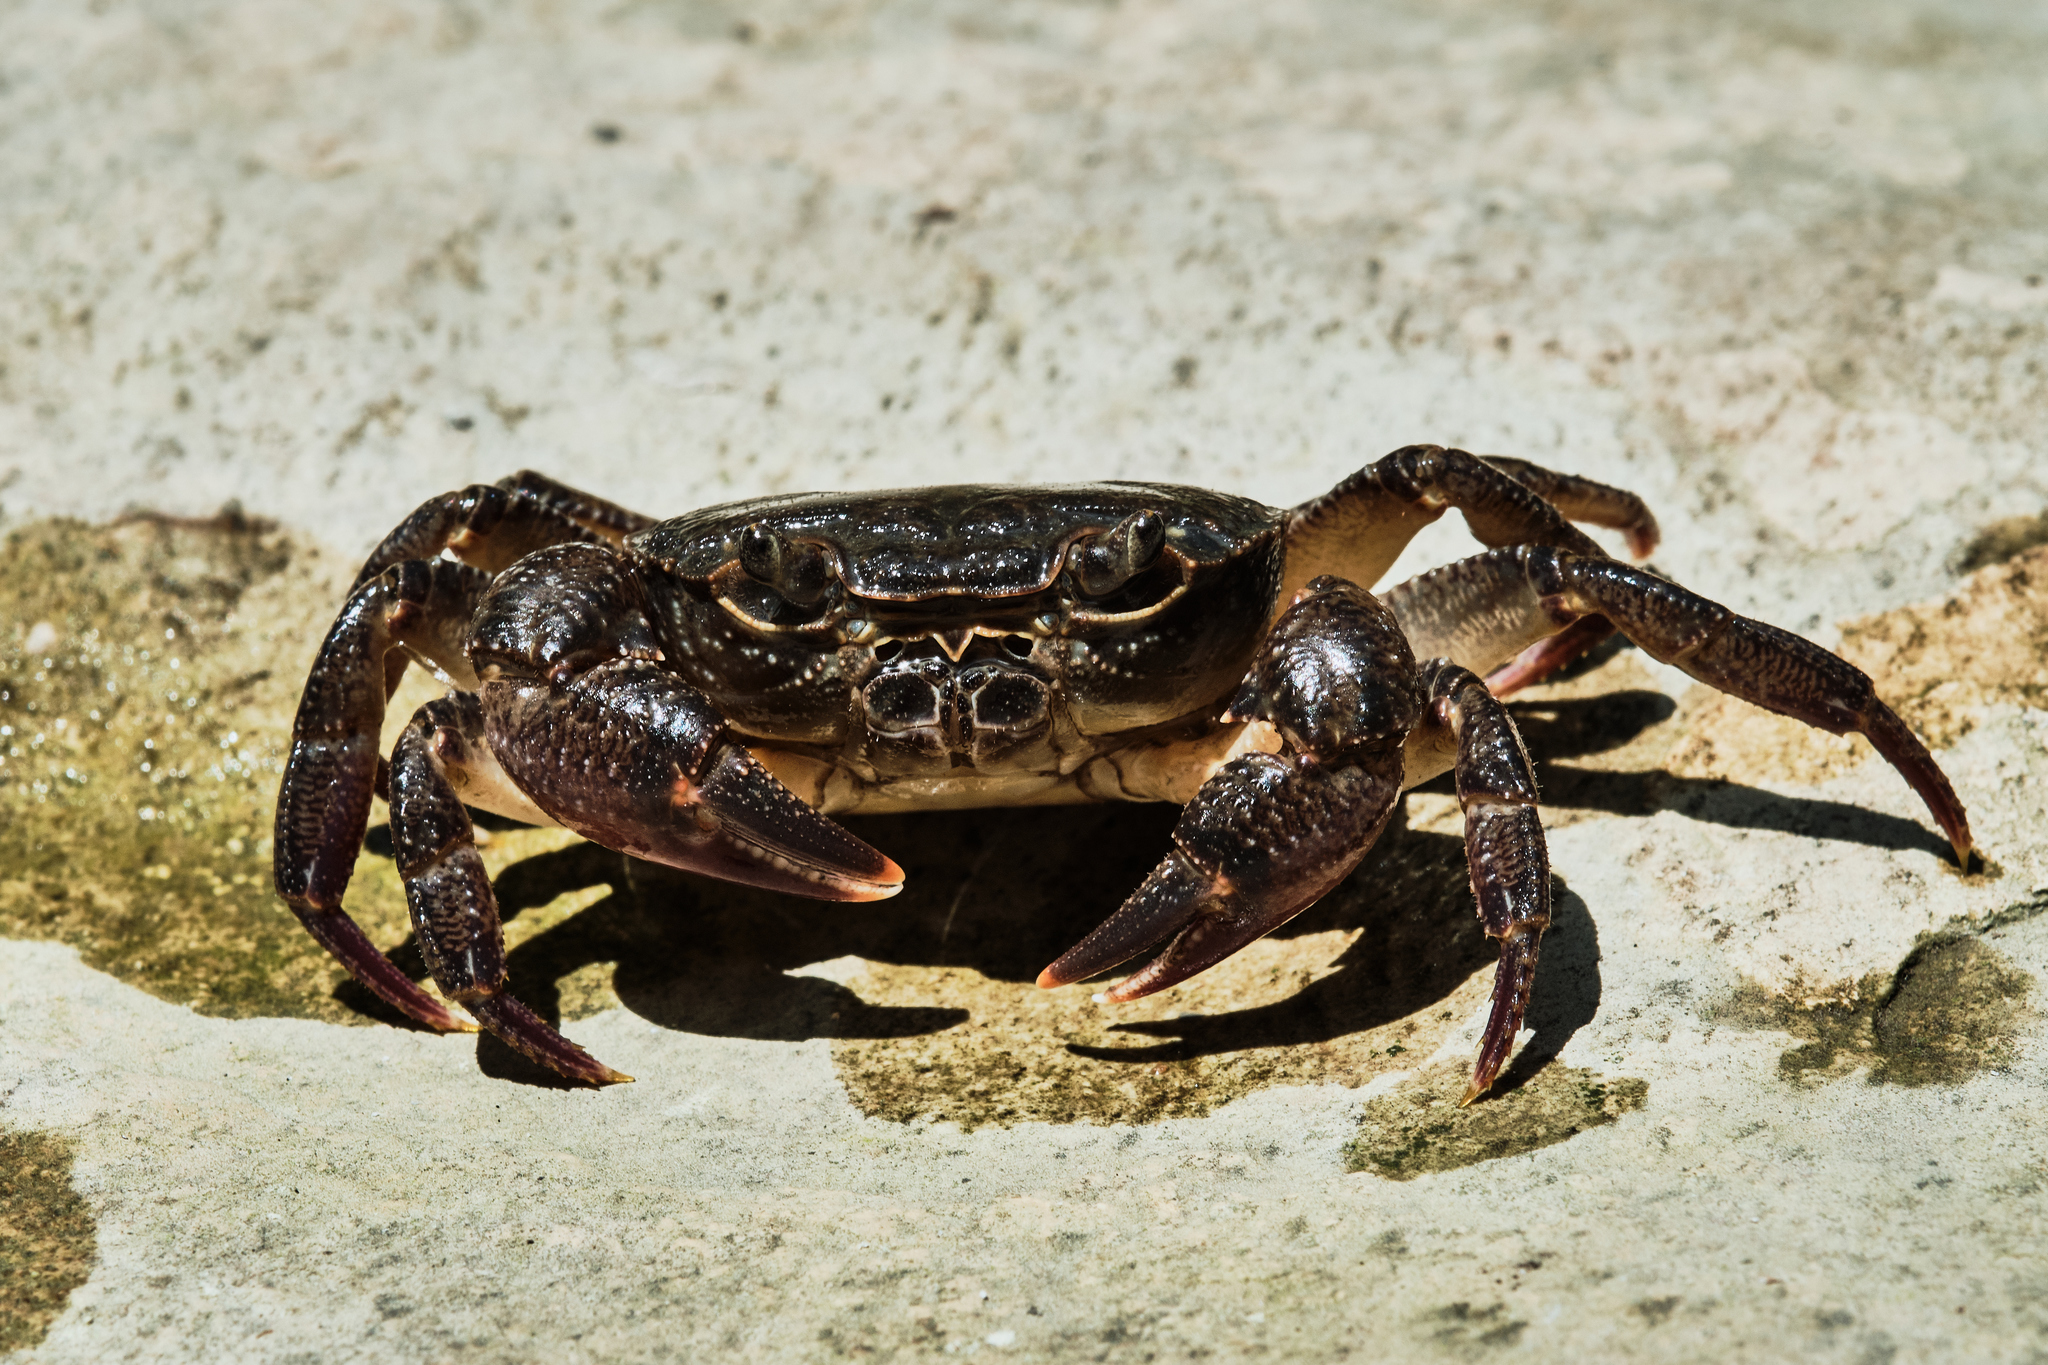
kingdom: Animalia
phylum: Arthropoda
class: Malacostraca
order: Decapoda
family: Potamidae
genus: Potamon
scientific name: Potamon ibericum
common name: Bieberstein's freshwater crab
